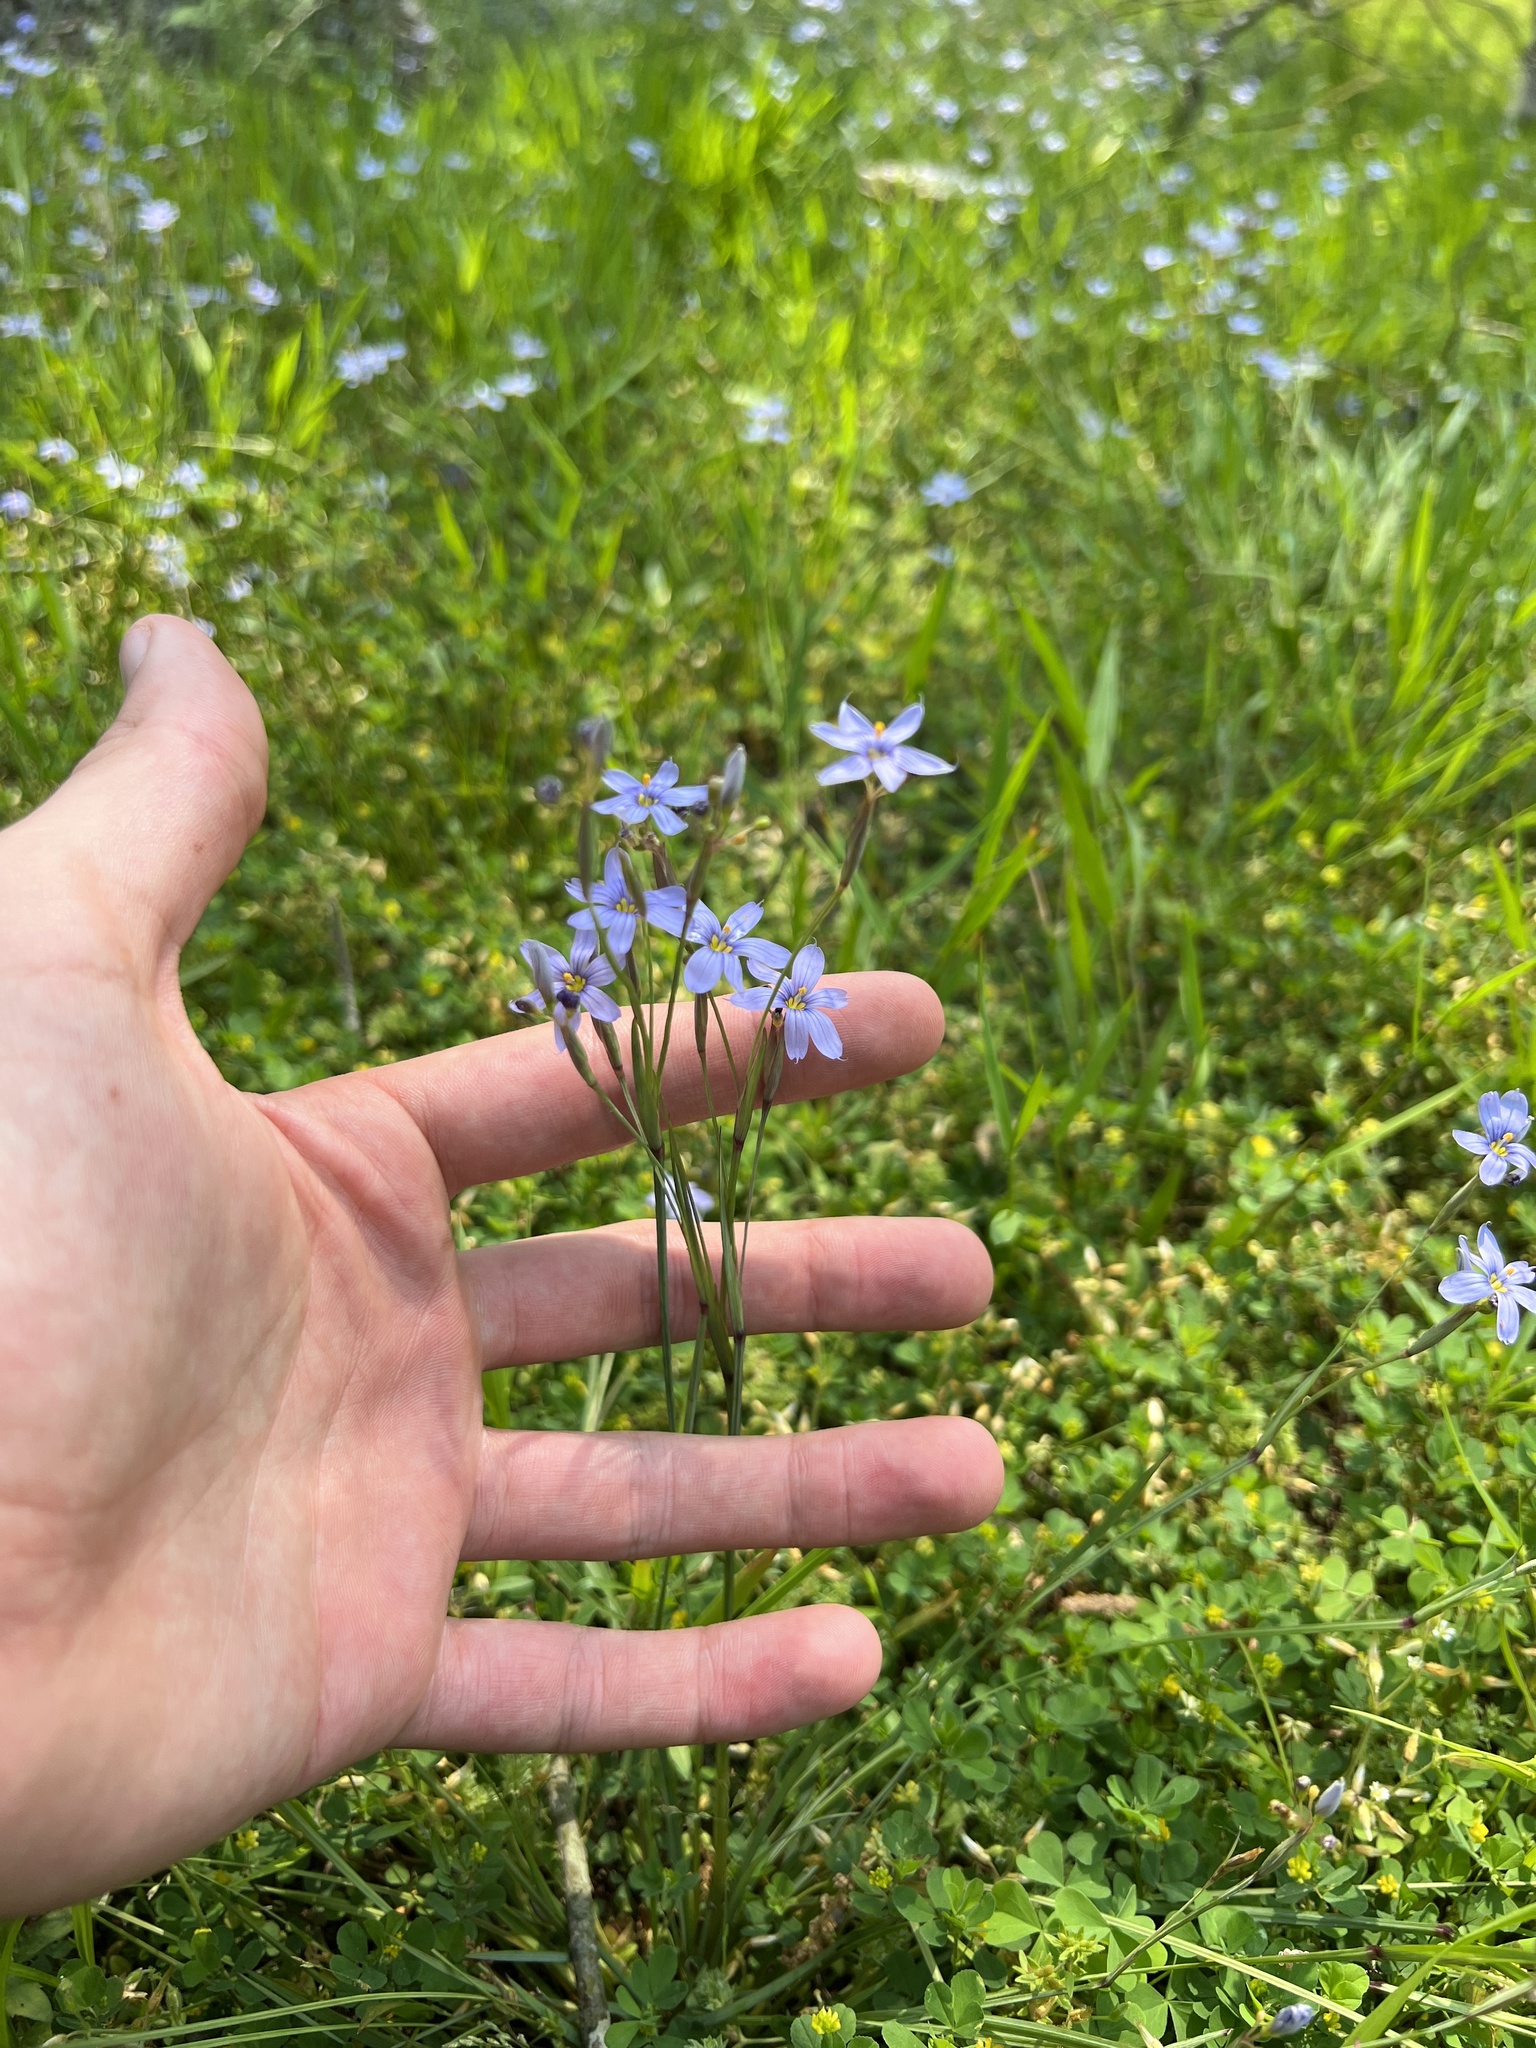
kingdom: Plantae
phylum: Tracheophyta
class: Liliopsida
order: Asparagales
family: Iridaceae
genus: Sisyrinchium
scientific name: Sisyrinchium atlanticum
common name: Eastern blue-eyed-grass
